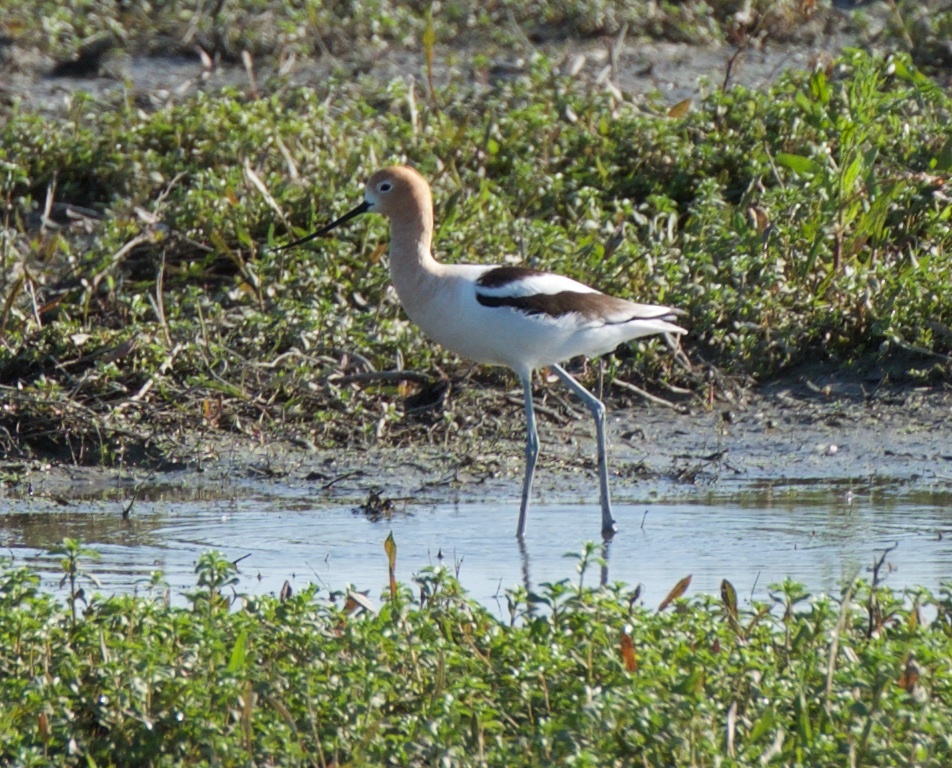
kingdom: Animalia
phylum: Chordata
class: Aves
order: Charadriiformes
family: Recurvirostridae
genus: Recurvirostra
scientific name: Recurvirostra americana
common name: American avocet
